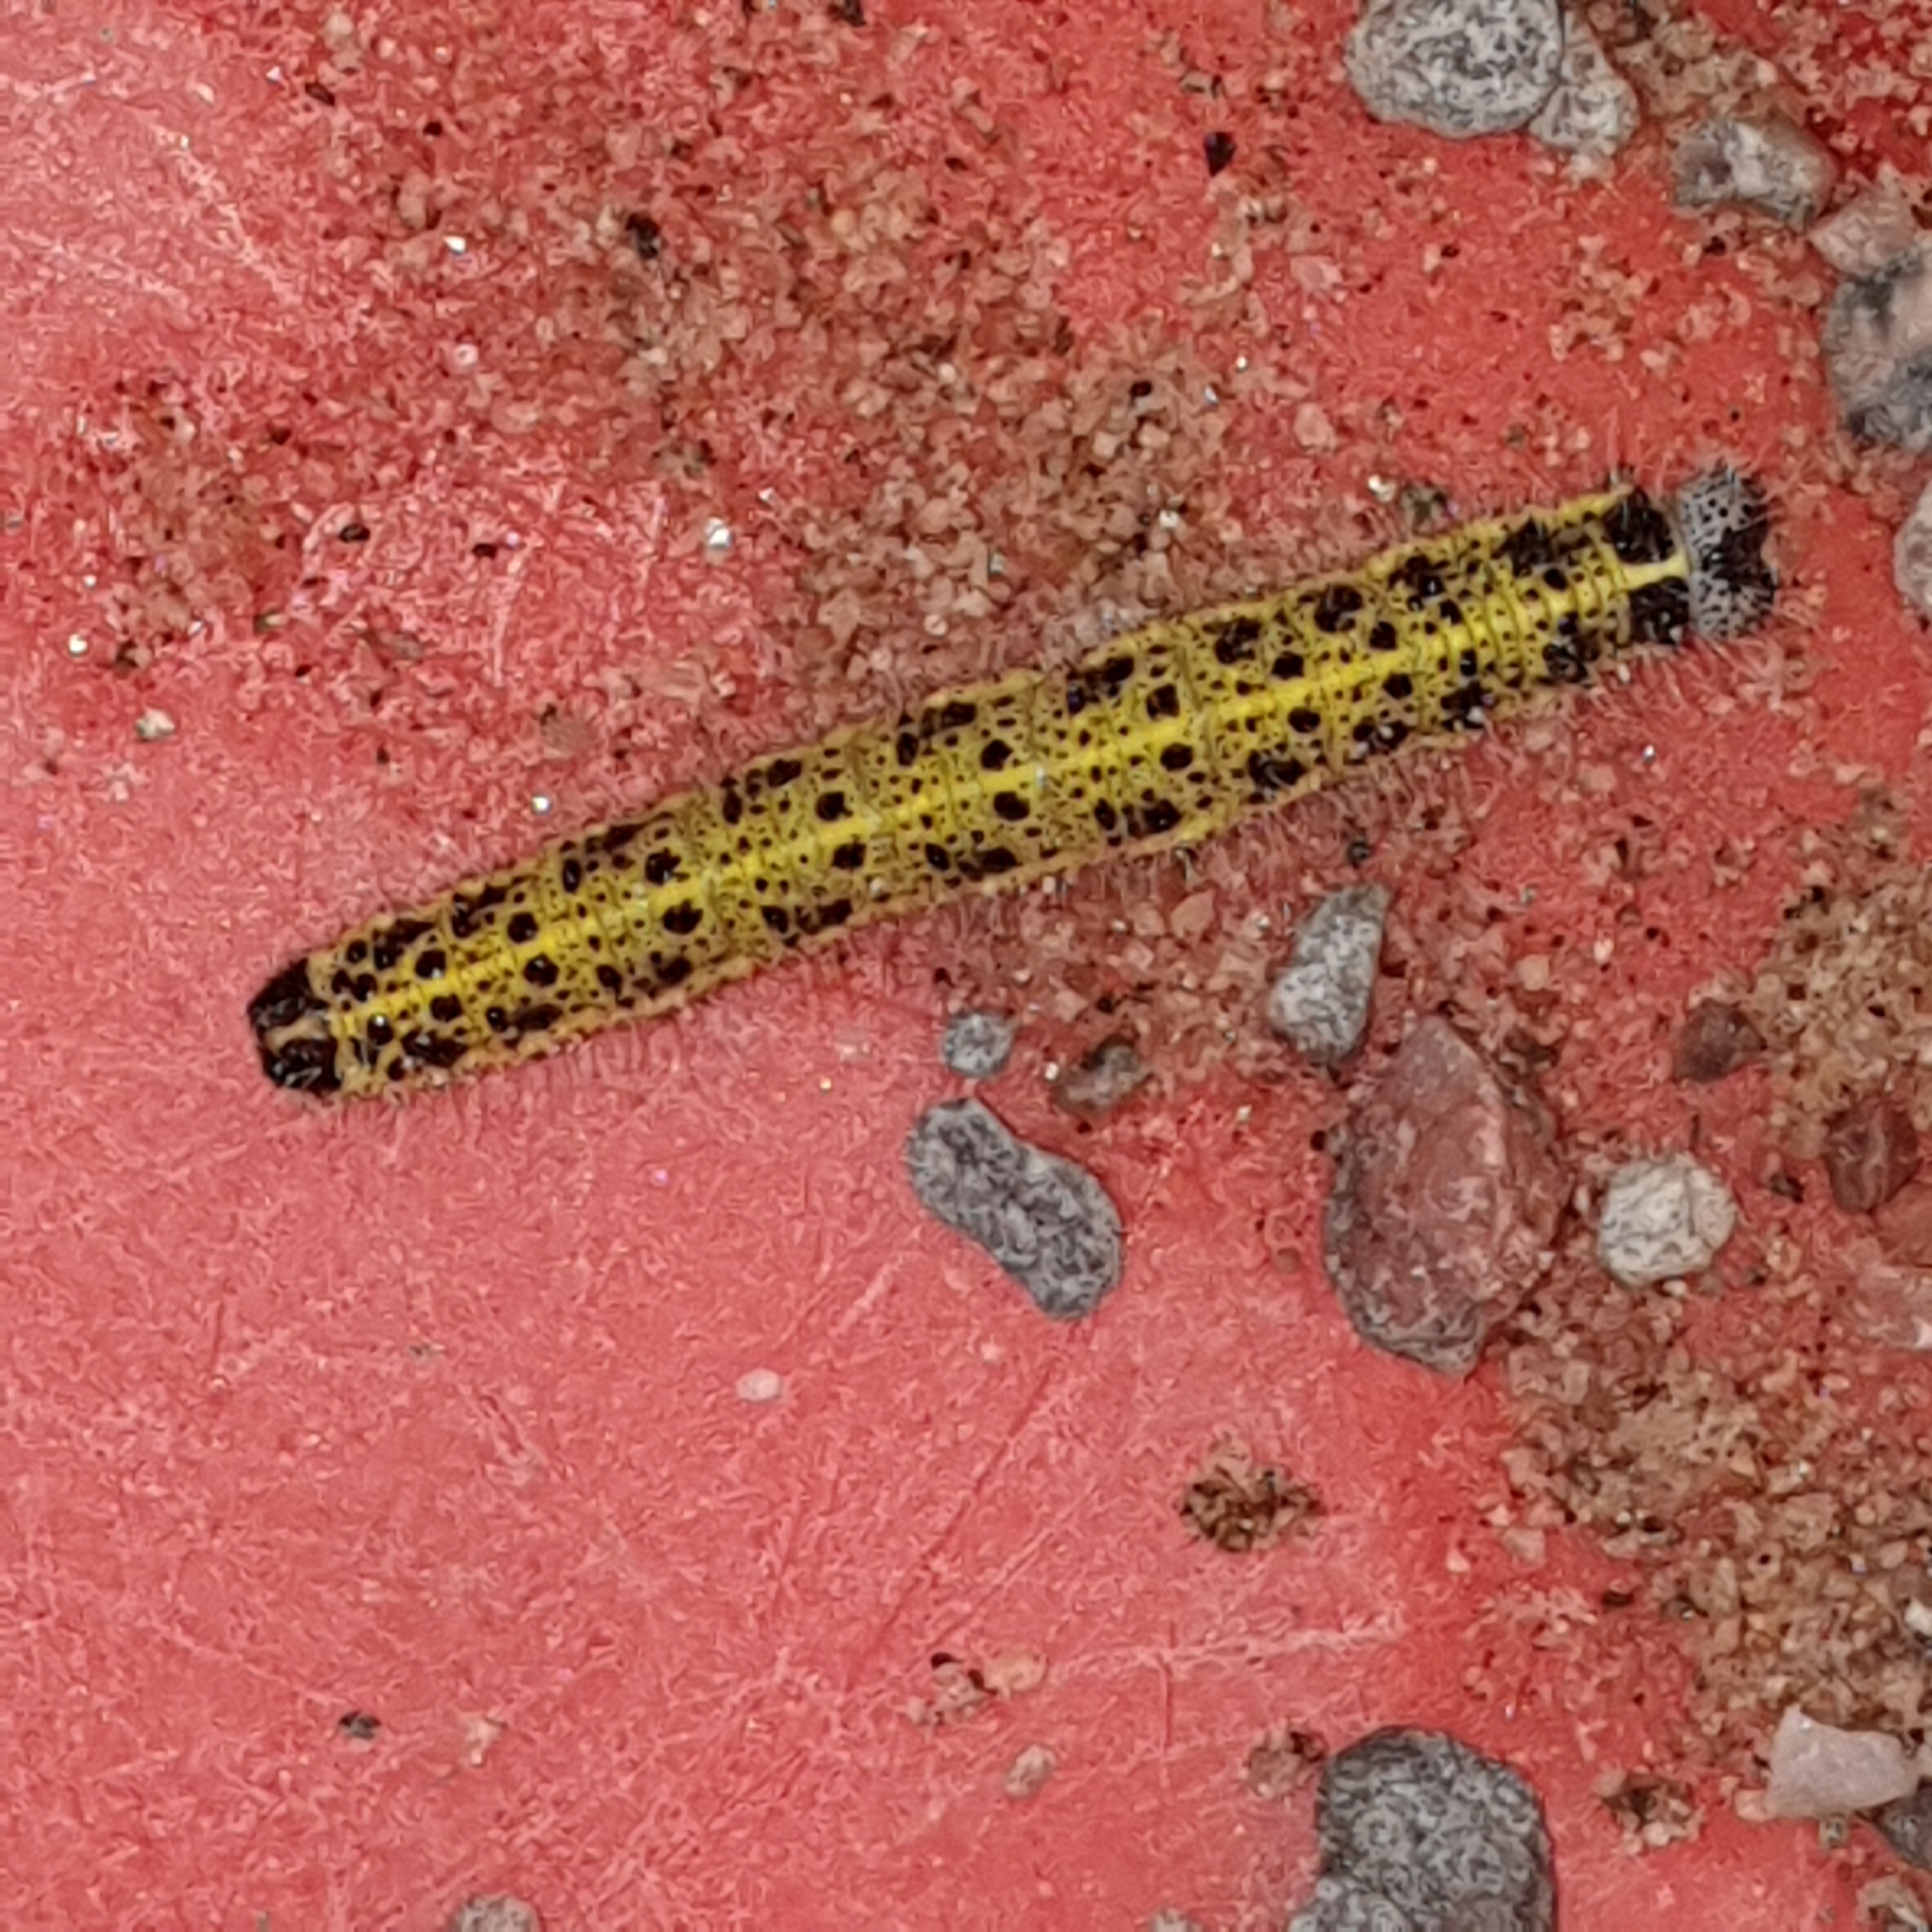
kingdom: Animalia
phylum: Arthropoda
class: Insecta
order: Lepidoptera
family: Pieridae
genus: Pieris
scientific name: Pieris brassicae
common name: Large white
